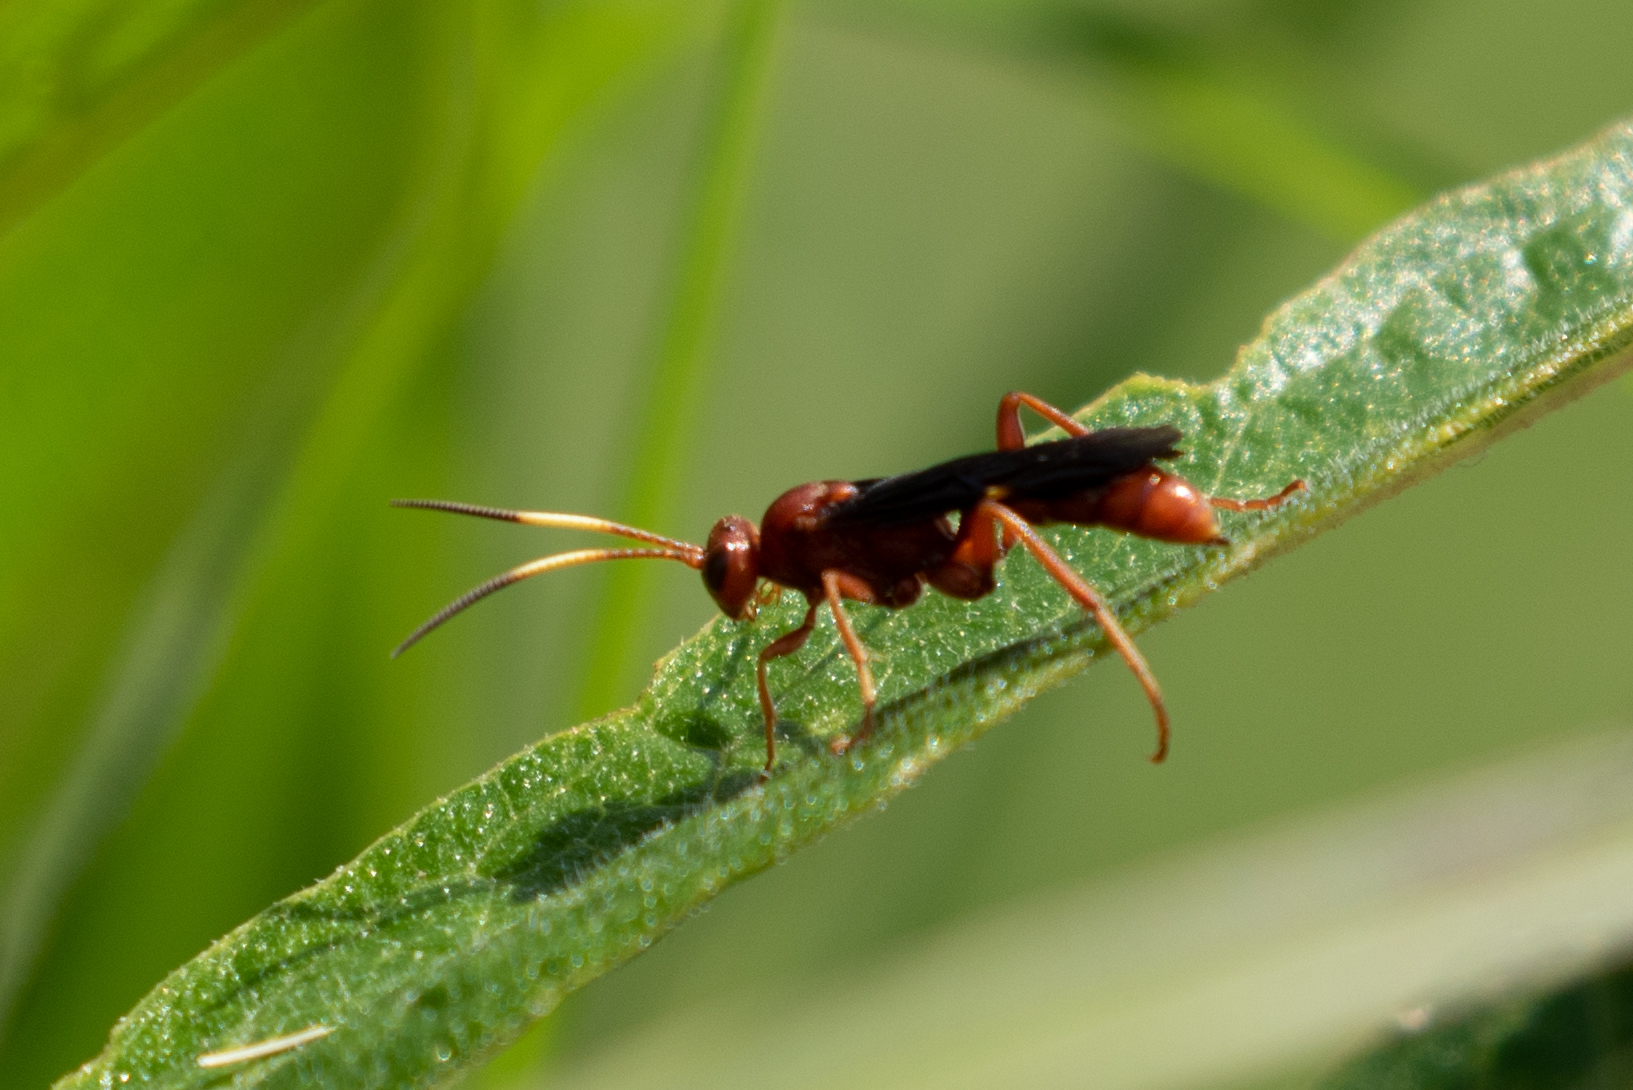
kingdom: Animalia
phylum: Arthropoda
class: Insecta
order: Hymenoptera
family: Ichneumonidae
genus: Trogomorpha
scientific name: Trogomorpha trogiformis
